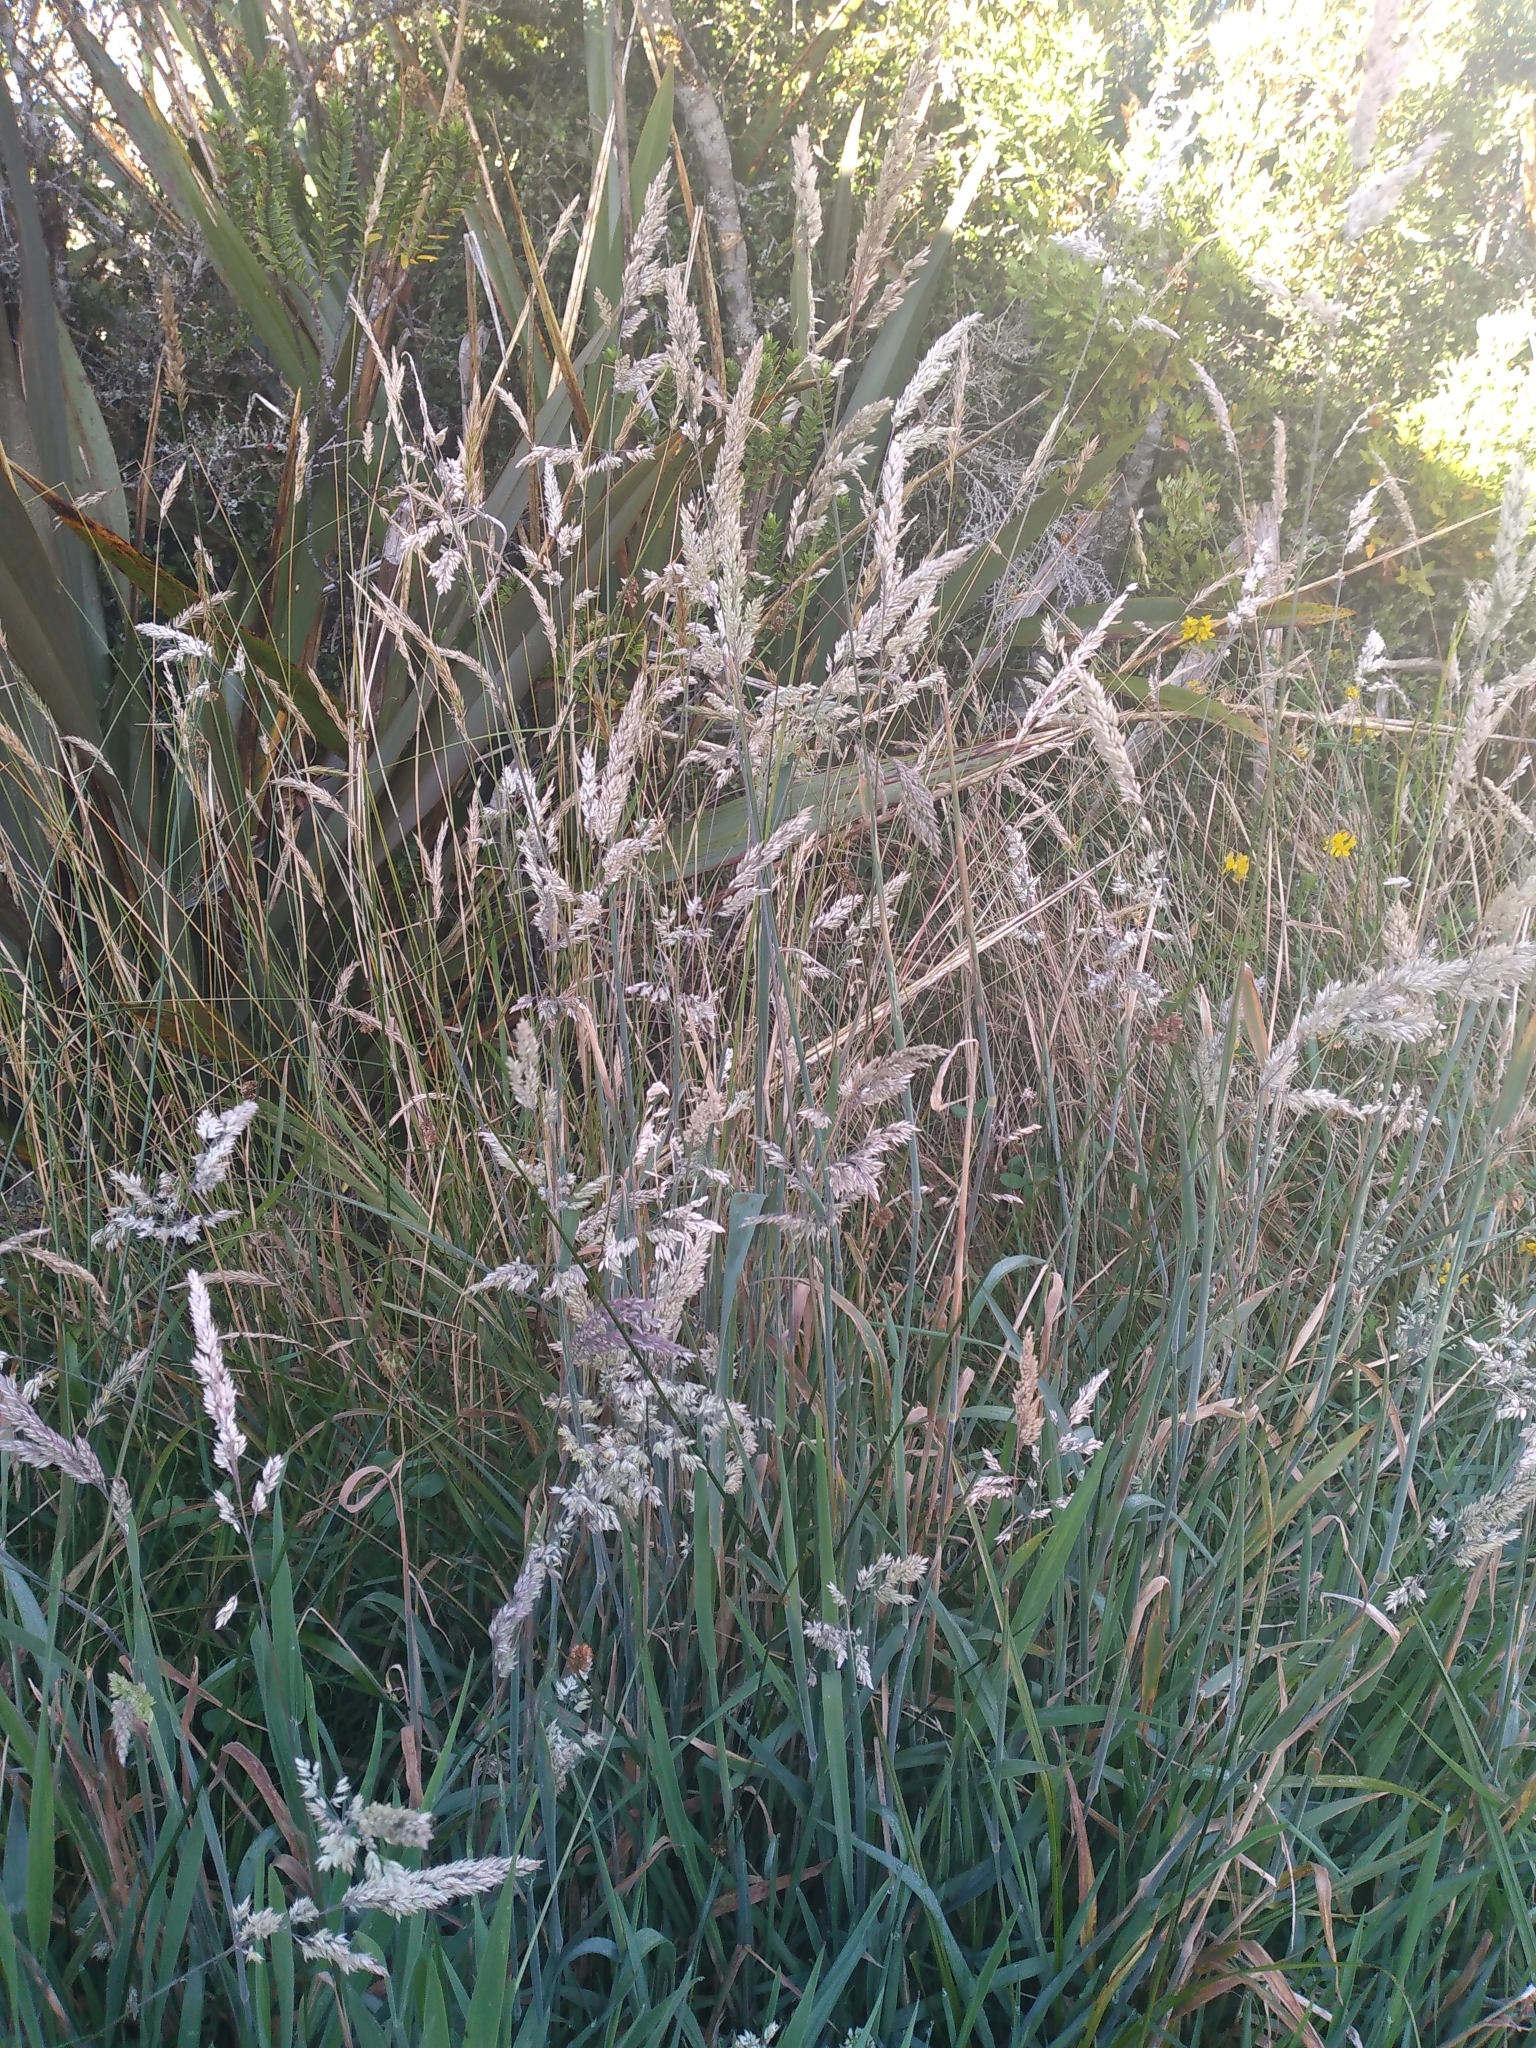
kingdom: Plantae
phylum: Tracheophyta
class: Liliopsida
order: Poales
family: Poaceae
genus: Holcus
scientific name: Holcus lanatus
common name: Yorkshire-fog
